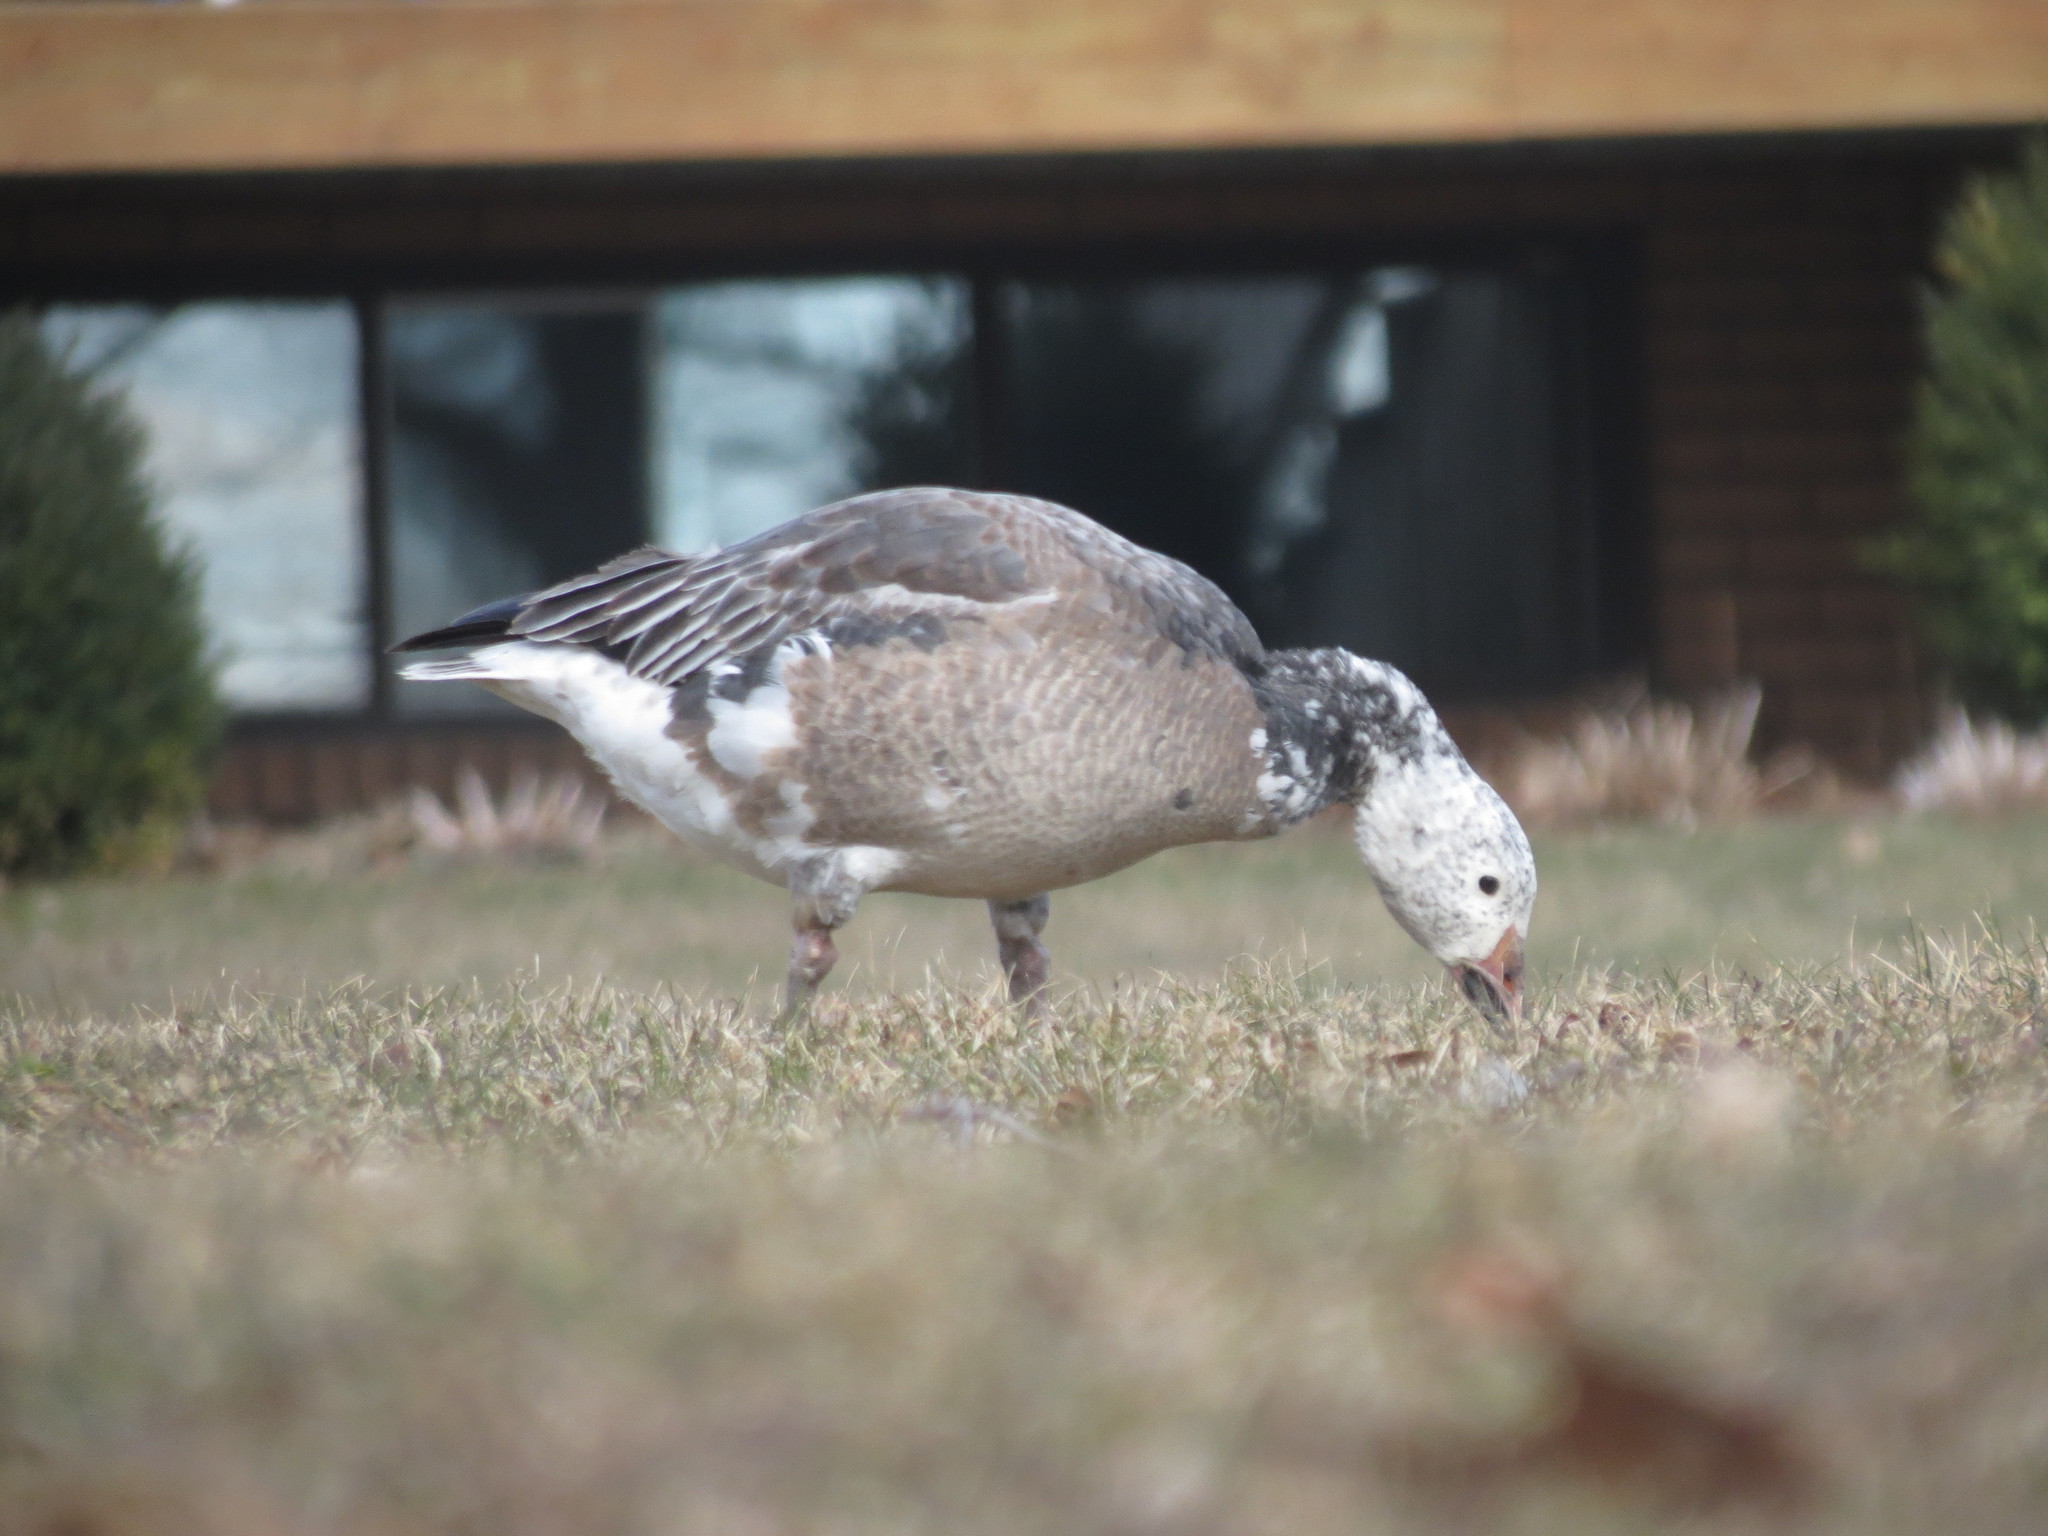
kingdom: Animalia
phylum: Chordata
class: Aves
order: Anseriformes
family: Anatidae
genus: Anser
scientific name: Anser caerulescens
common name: Snow goose
